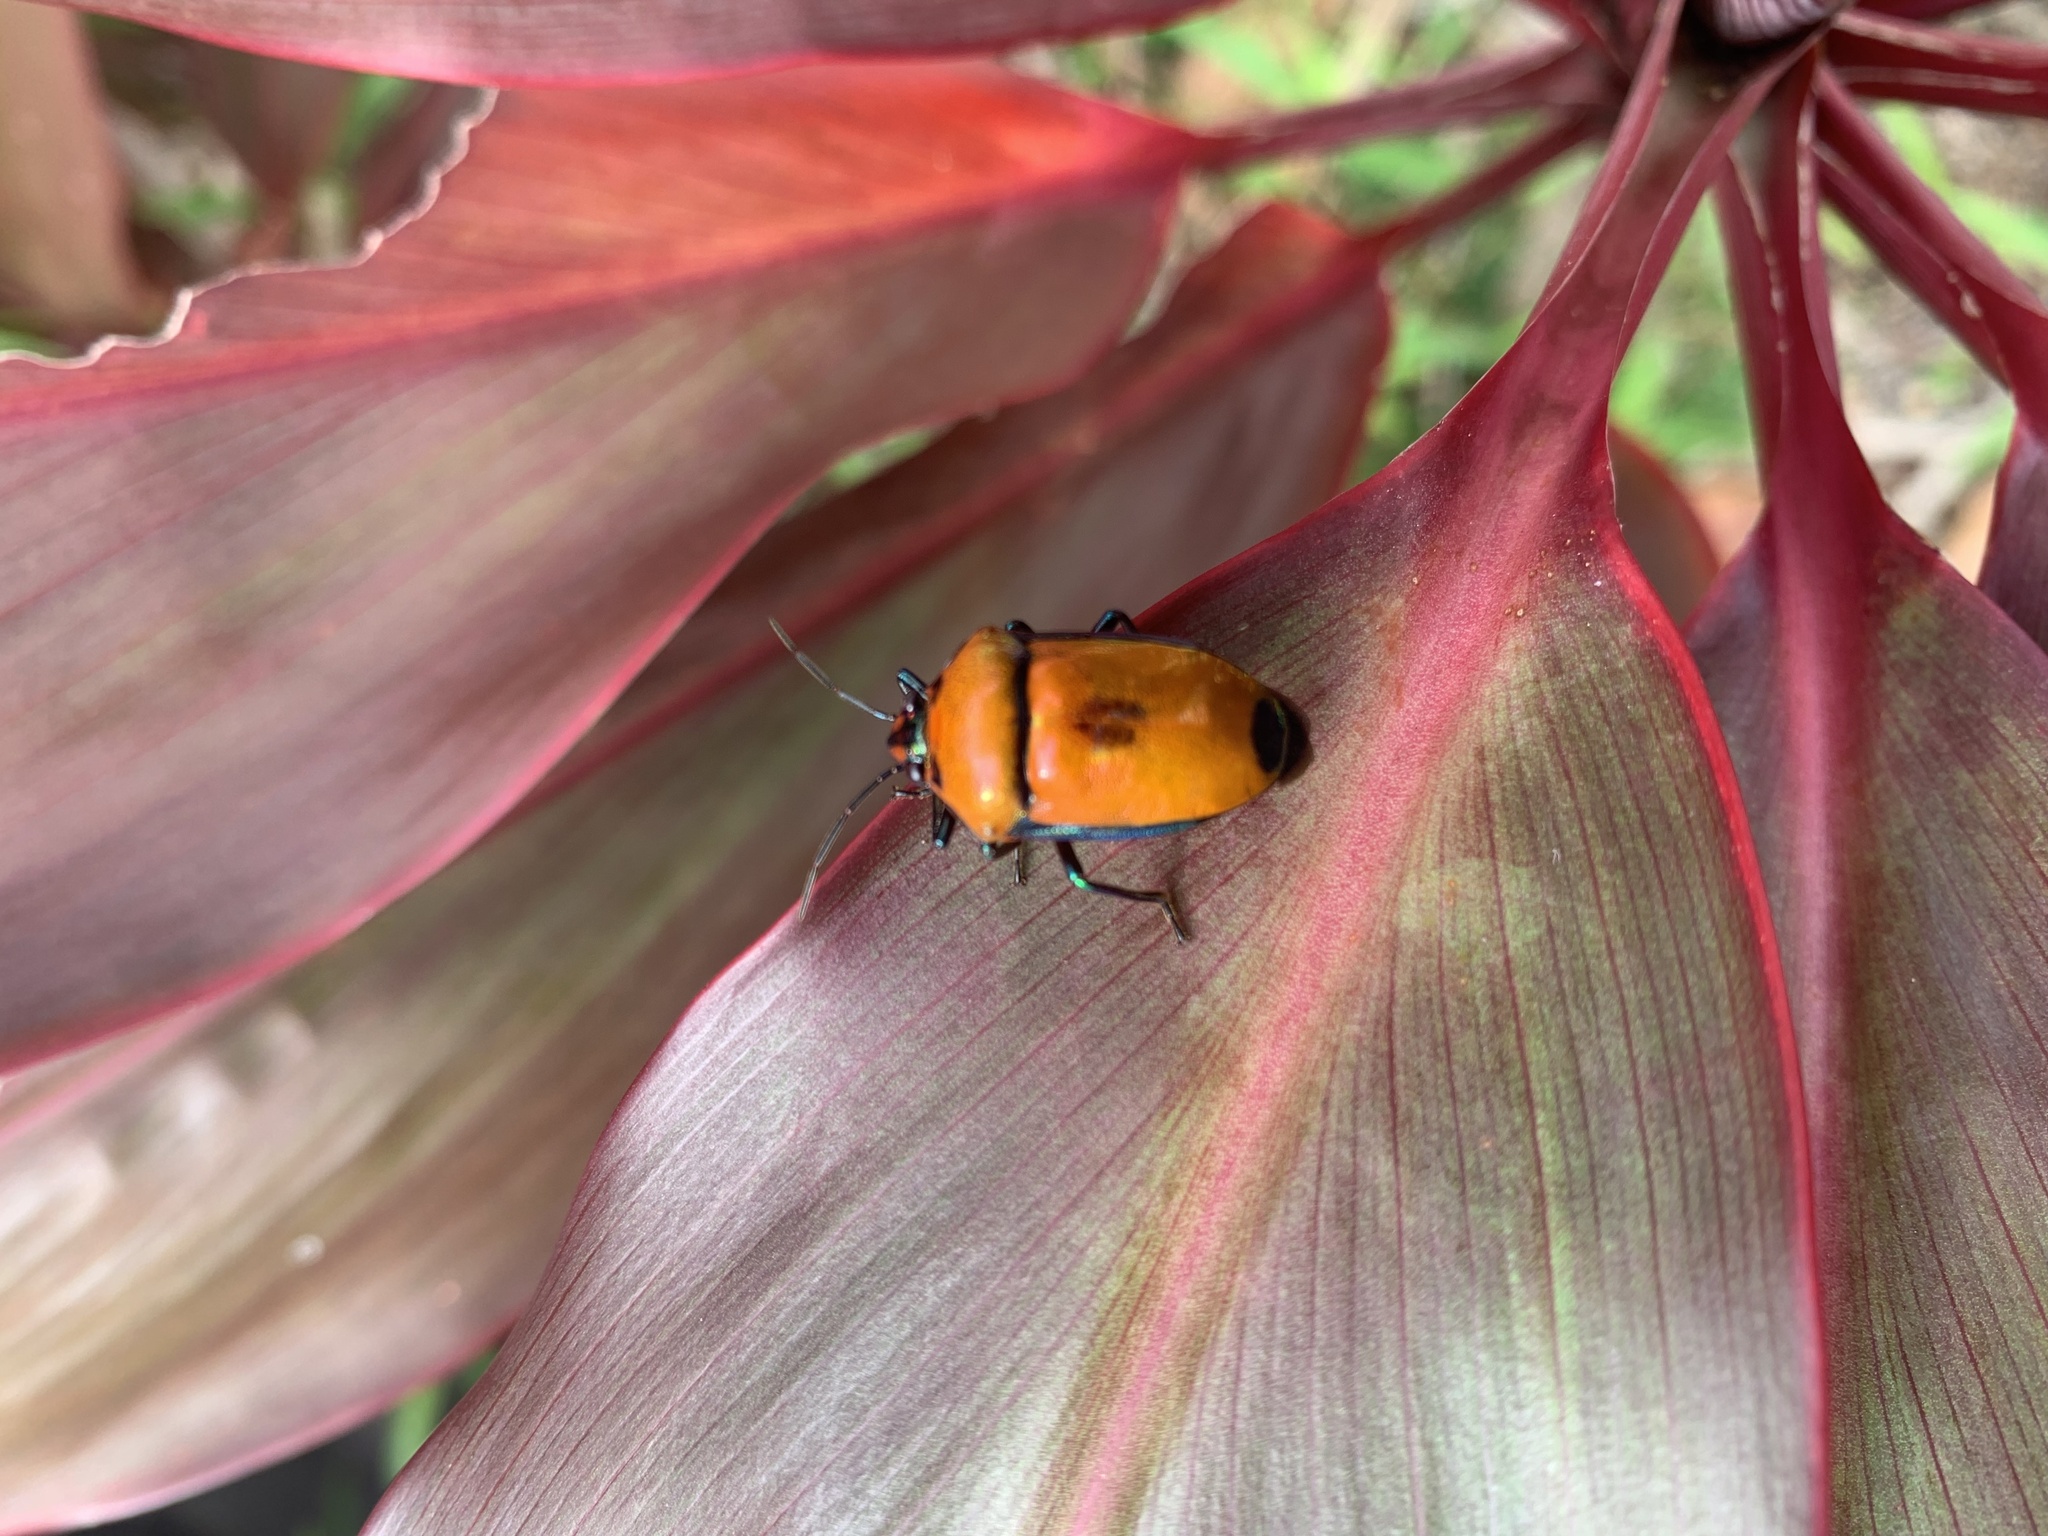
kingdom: Animalia
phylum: Arthropoda
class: Insecta
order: Hemiptera
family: Scutelleridae
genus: Calliphara
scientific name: Calliphara regalis
